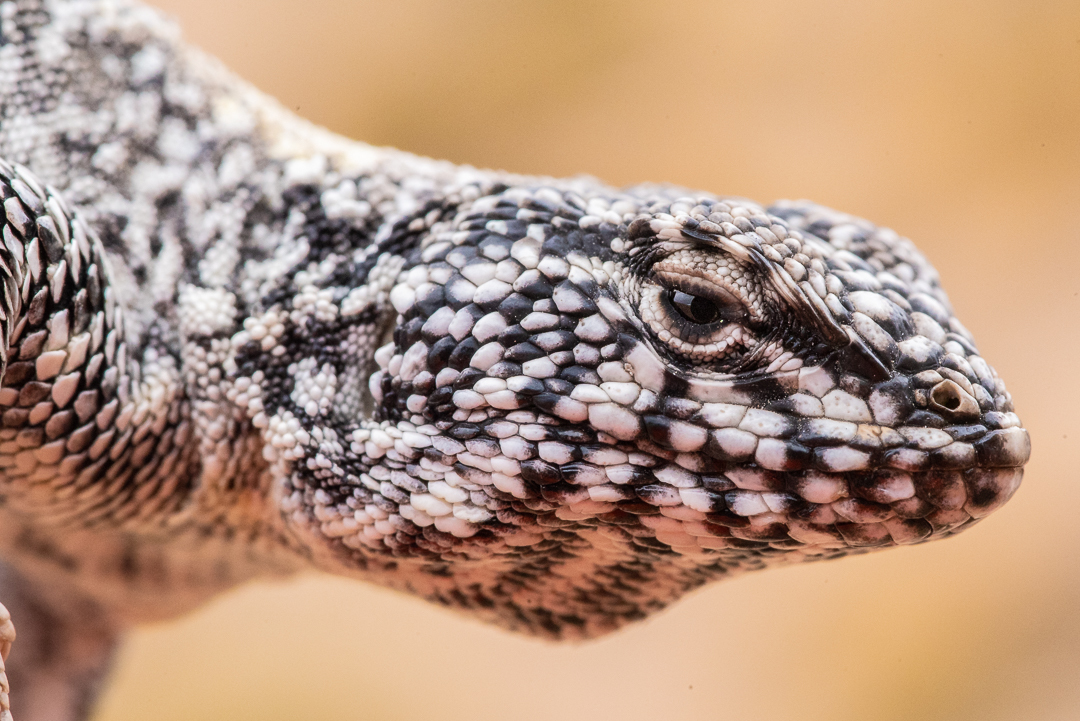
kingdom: Animalia
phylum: Chordata
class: Squamata
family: Liolaemidae
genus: Liolaemus
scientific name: Liolaemus jamesi
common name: James' tree iguana
